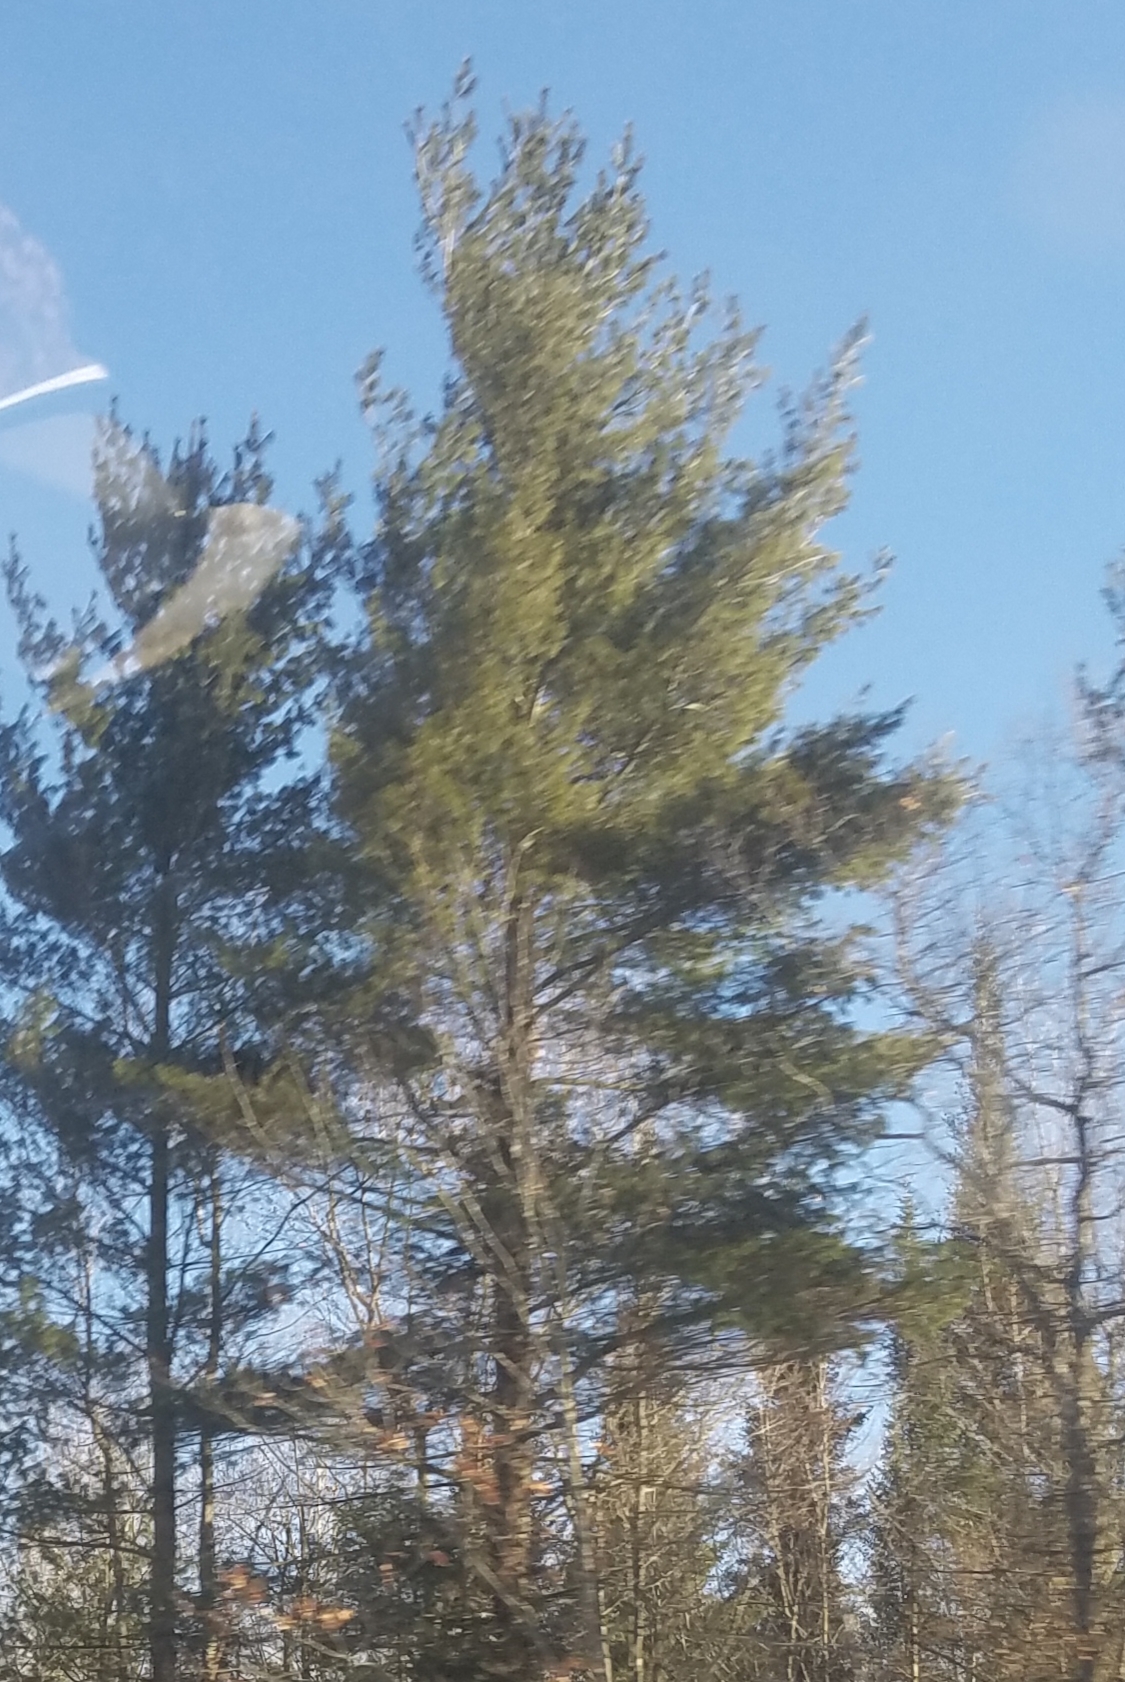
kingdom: Plantae
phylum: Tracheophyta
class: Pinopsida
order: Pinales
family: Pinaceae
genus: Pinus
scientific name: Pinus strobus
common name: Weymouth pine
